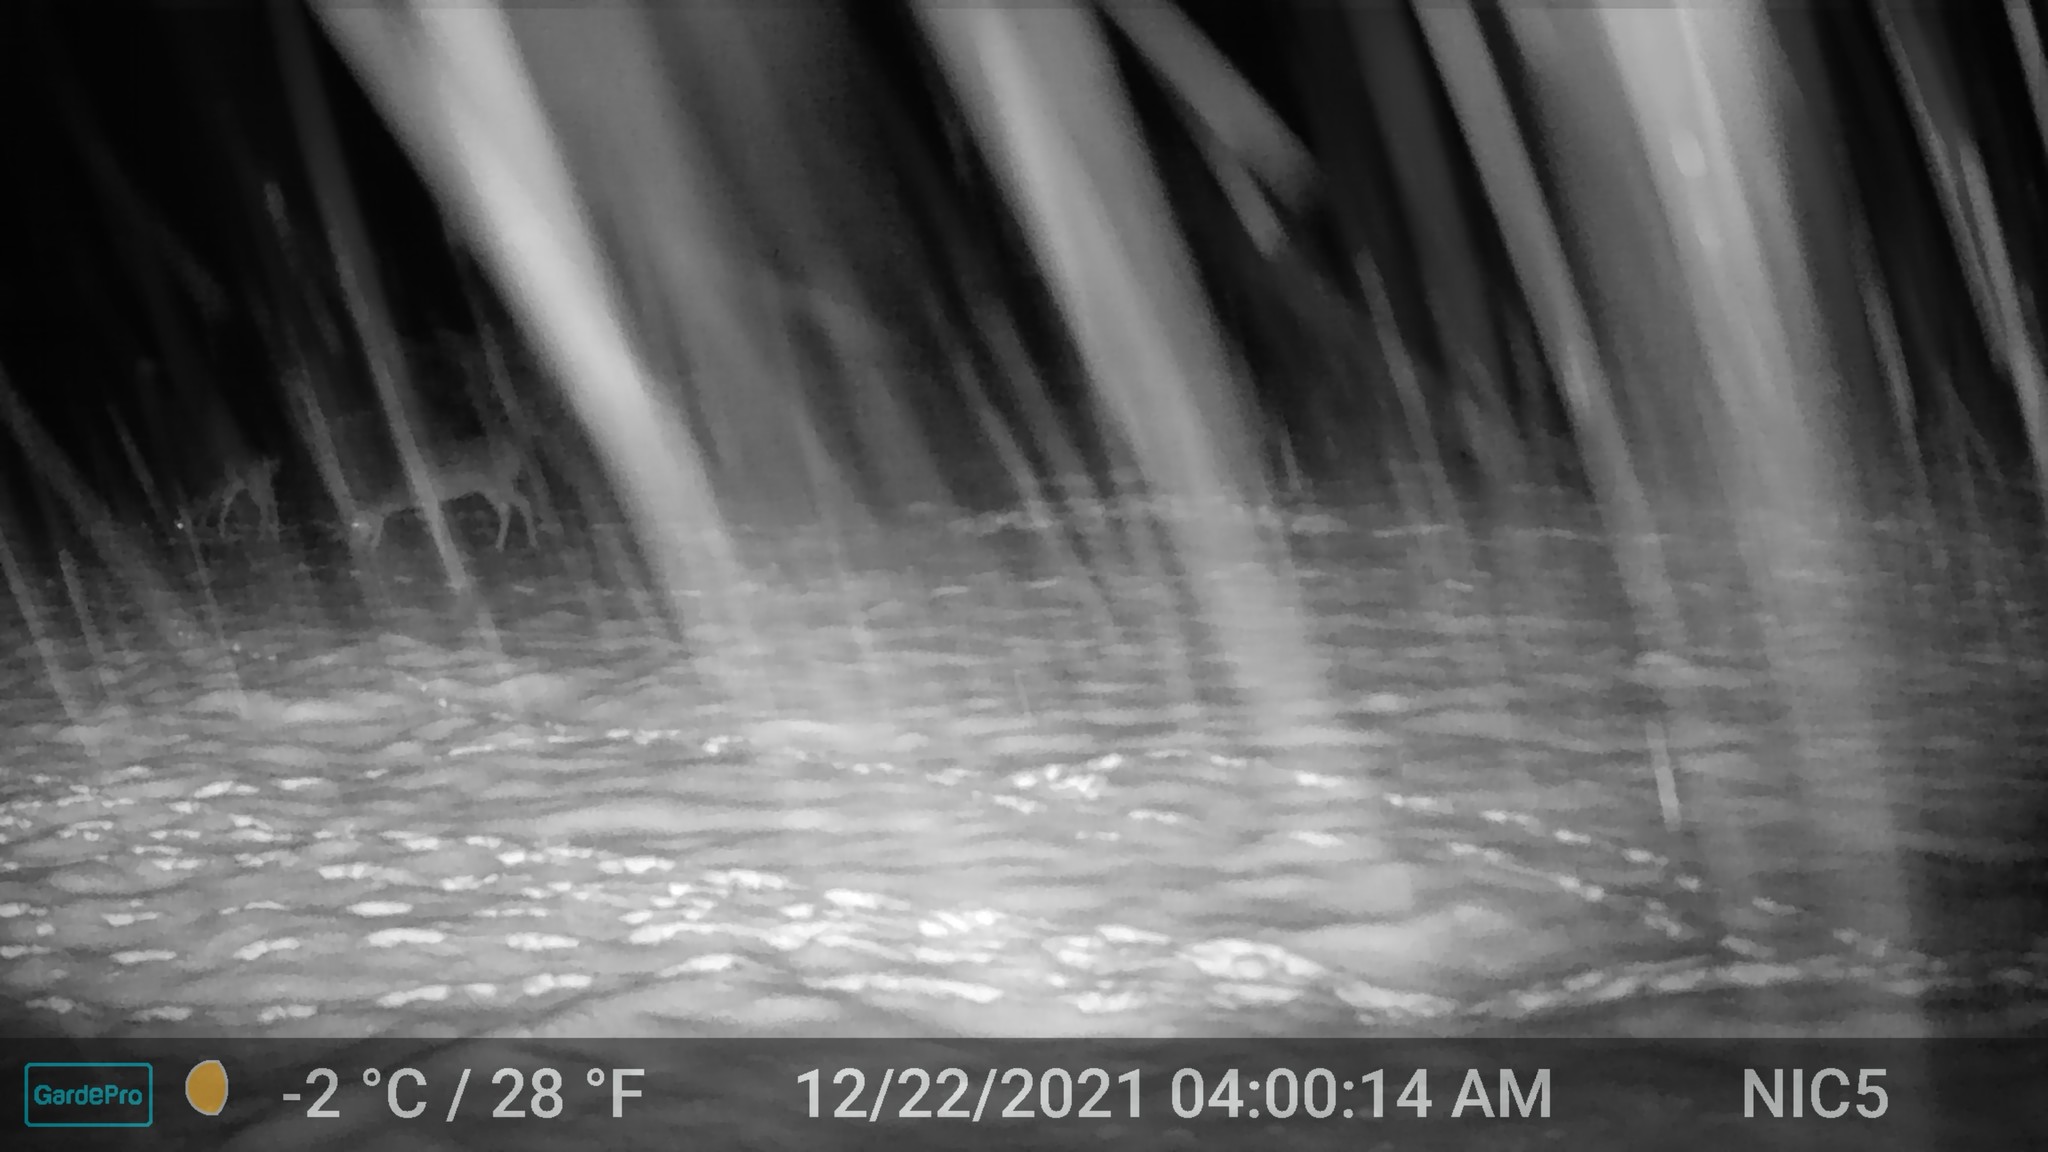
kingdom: Animalia
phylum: Chordata
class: Mammalia
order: Artiodactyla
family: Cervidae
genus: Odocoileus
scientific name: Odocoileus virginianus
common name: White-tailed deer
